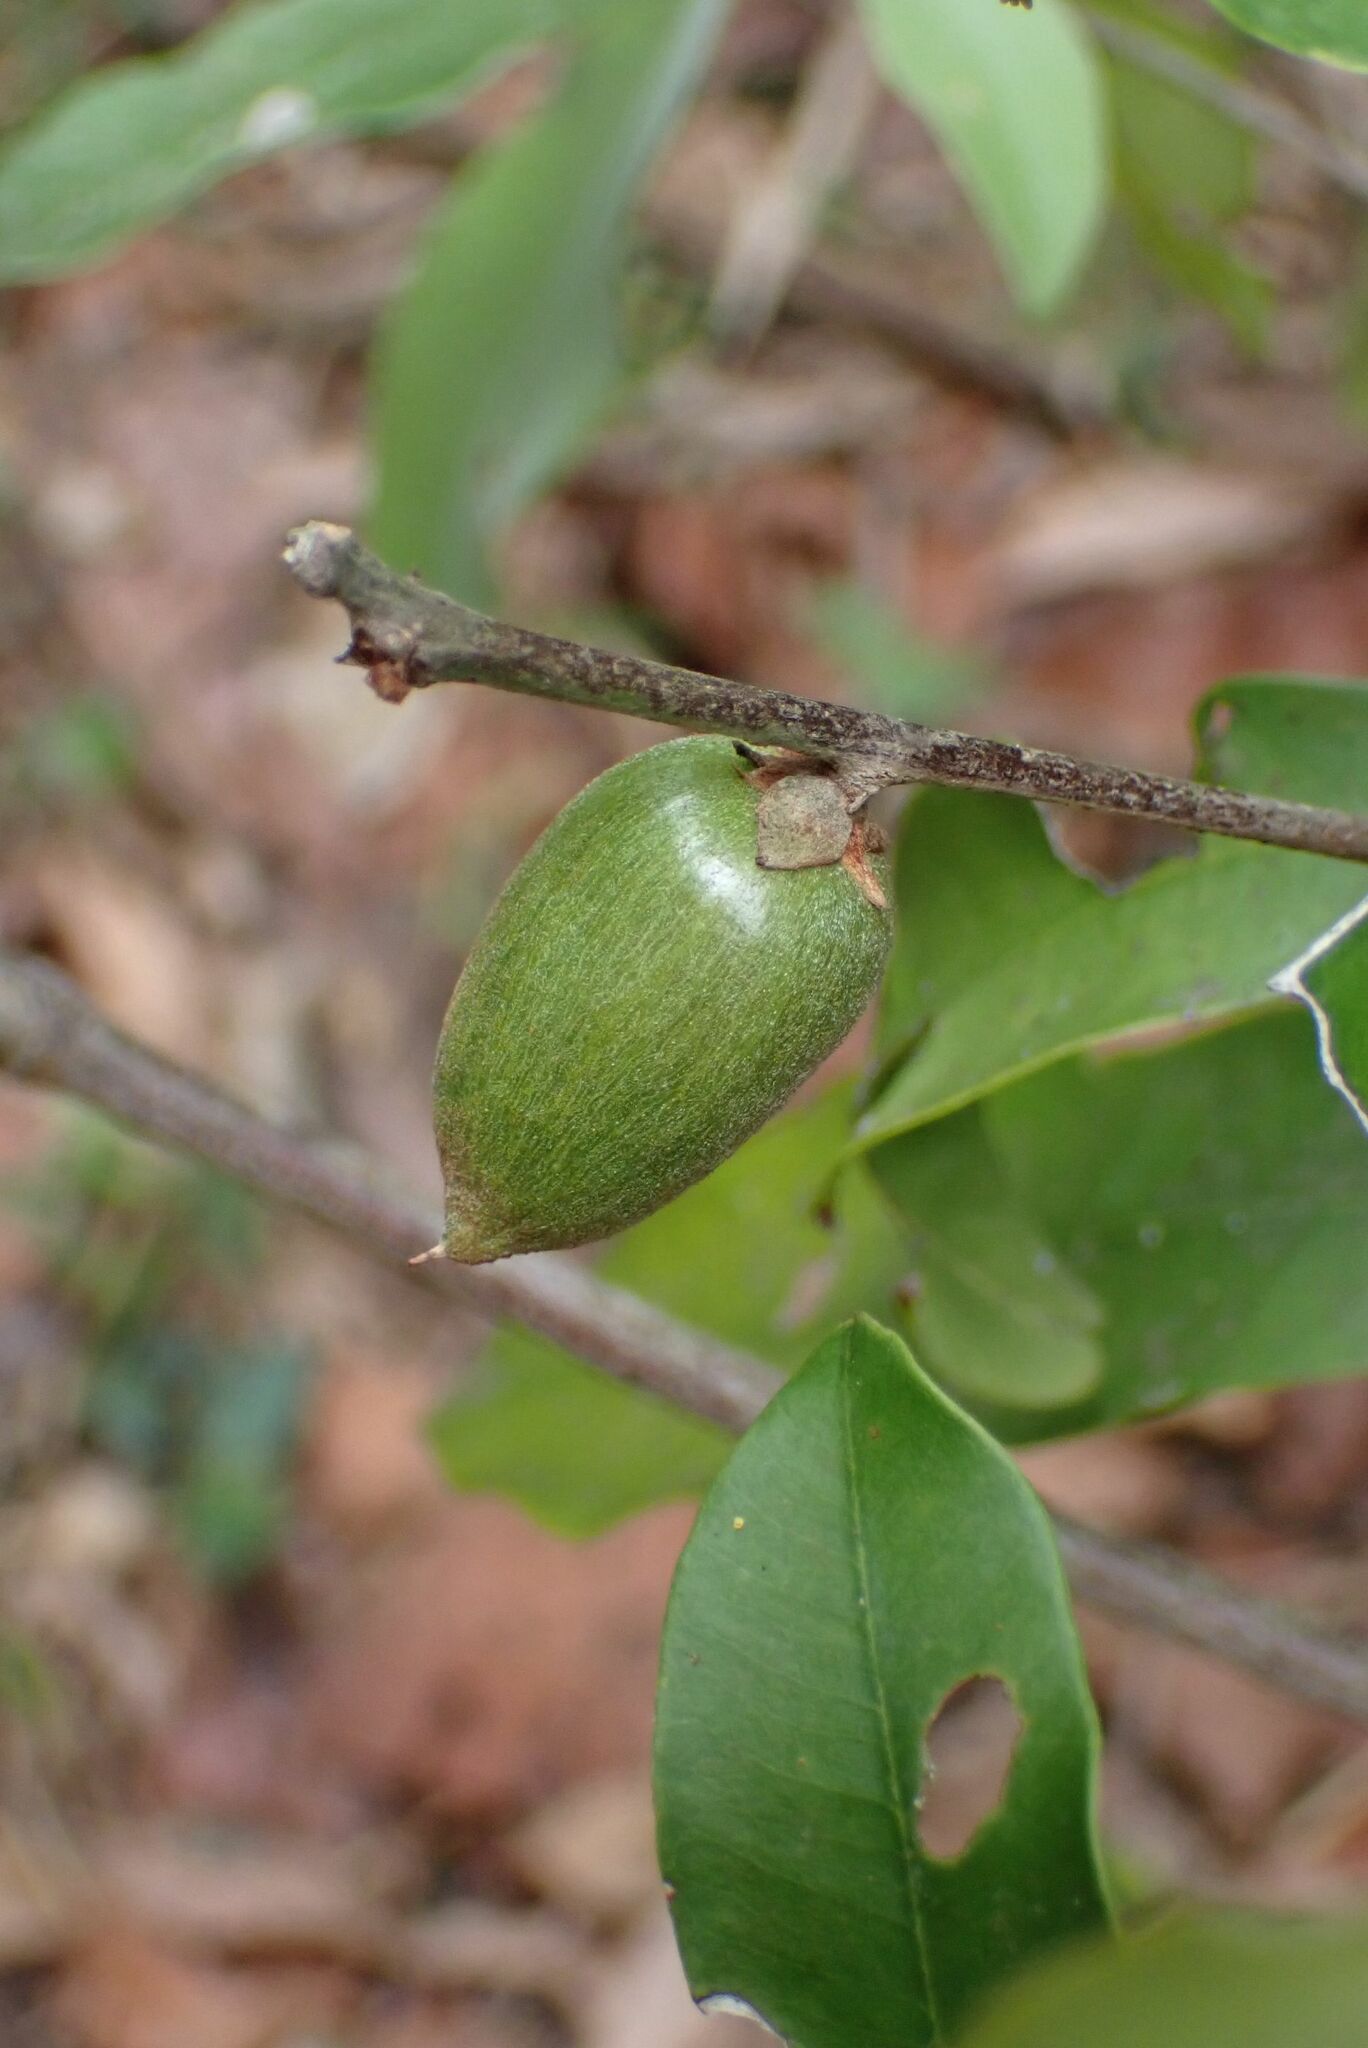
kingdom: Plantae
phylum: Tracheophyta
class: Magnoliopsida
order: Ericales
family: Sapotaceae
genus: Englerophytum
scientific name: Englerophytum natalense
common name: Silver-leaved milkplum
